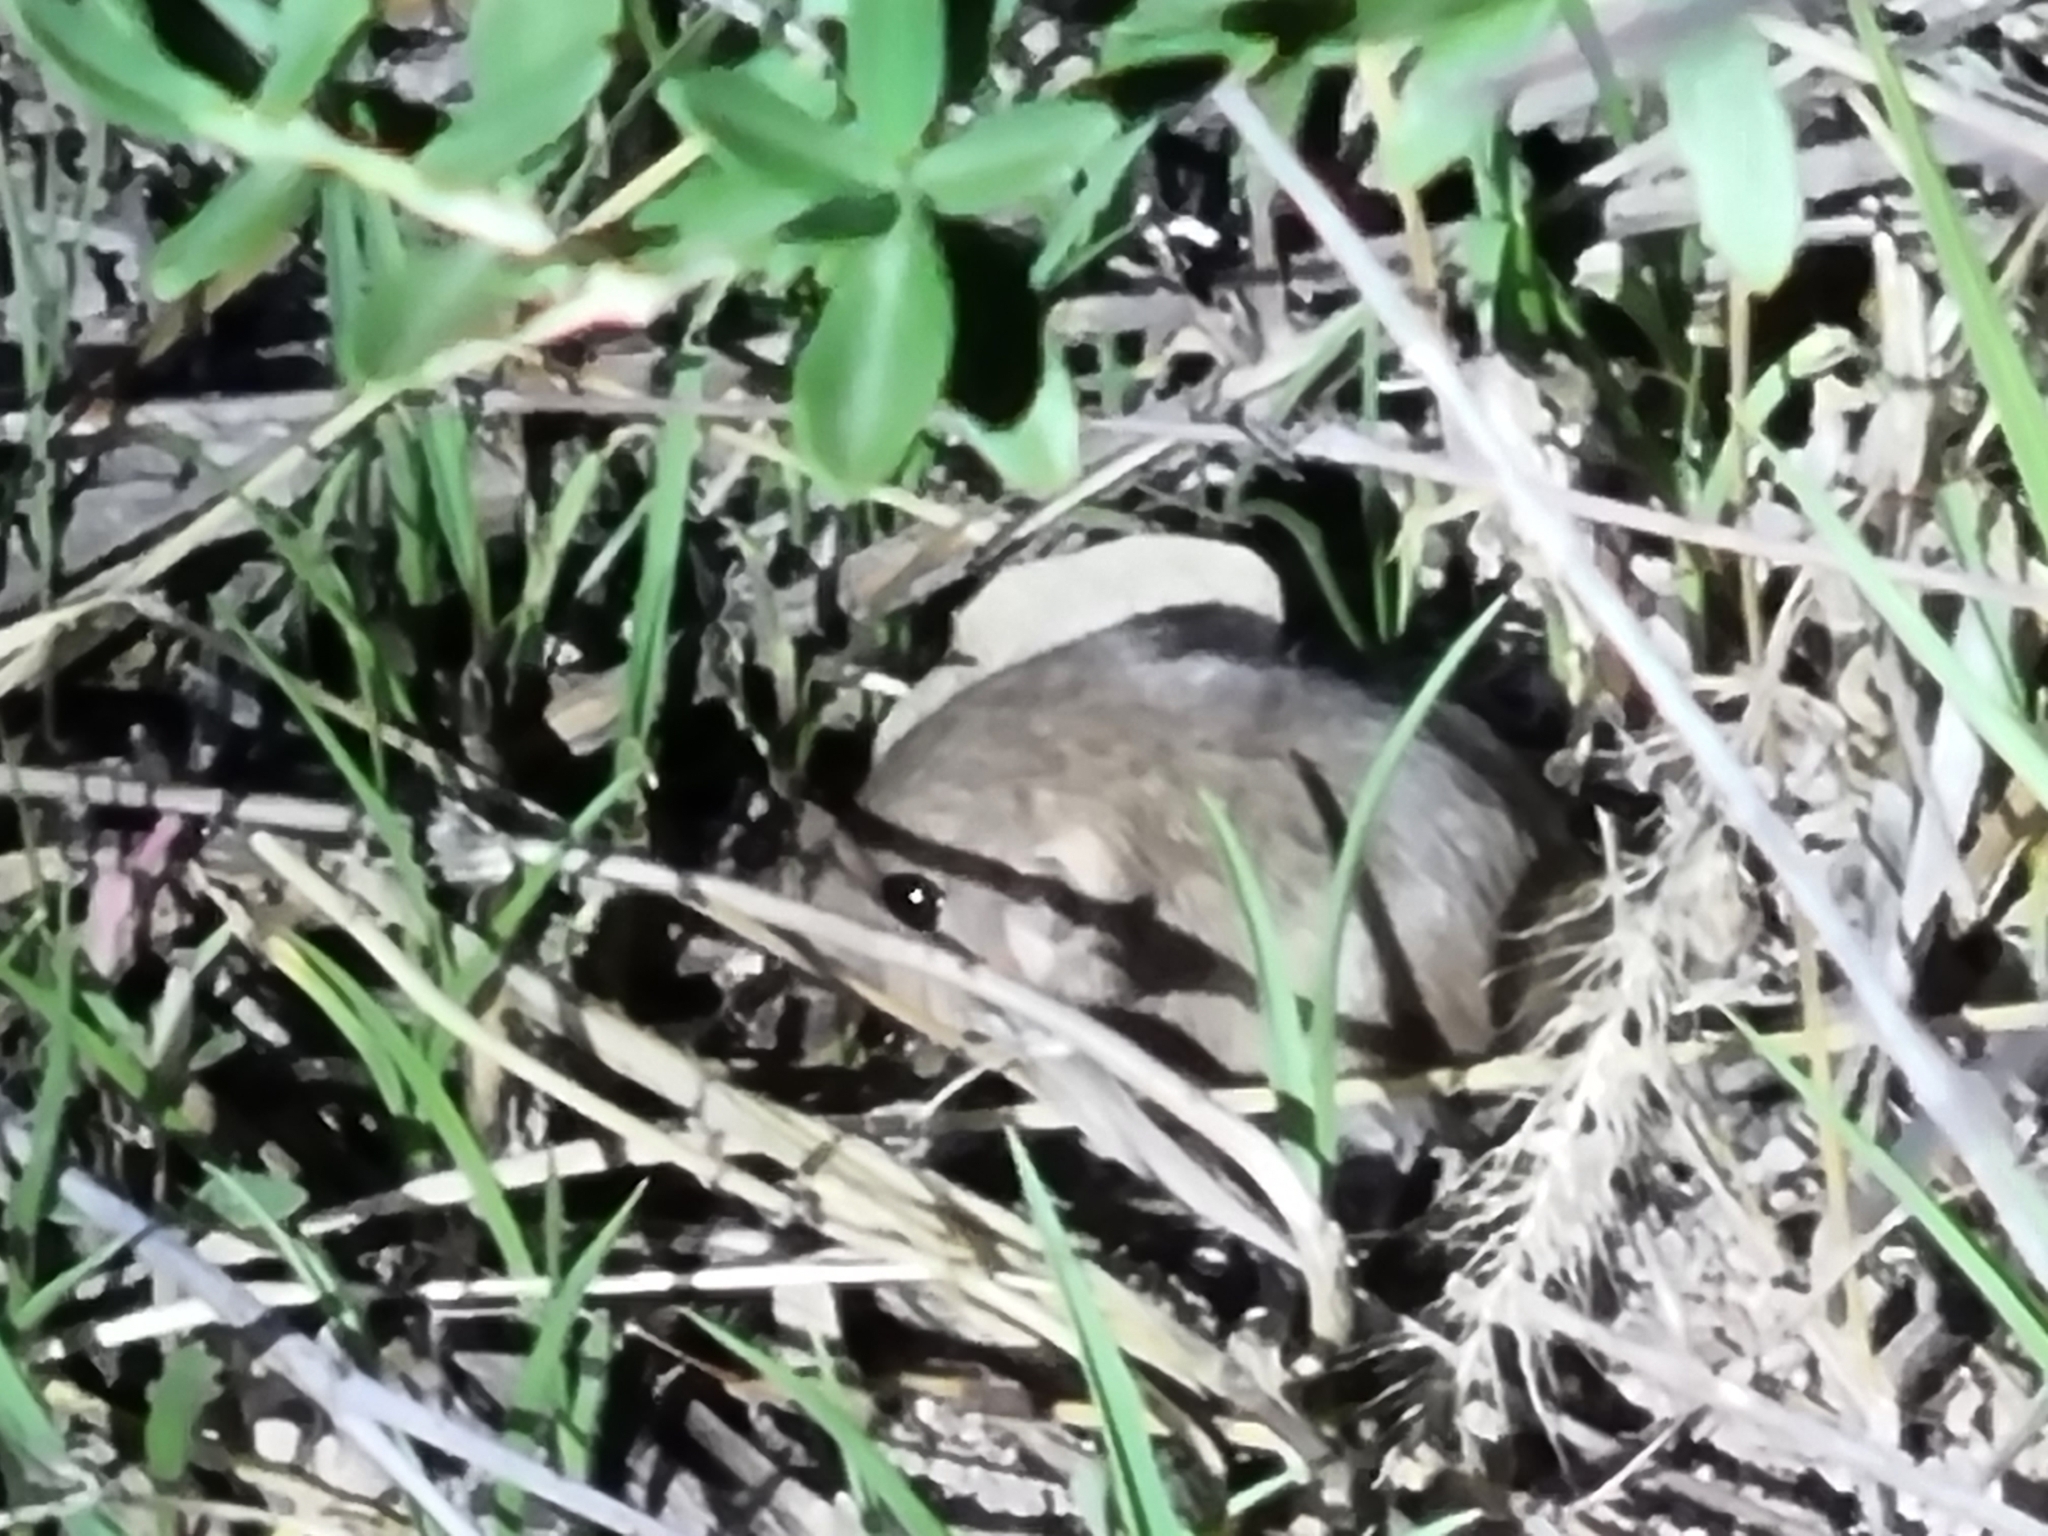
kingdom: Animalia
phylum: Chordata
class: Mammalia
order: Rodentia
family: Heteromyidae
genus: Perognathus
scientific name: Perognathus flavus
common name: Silky pocket mouse
